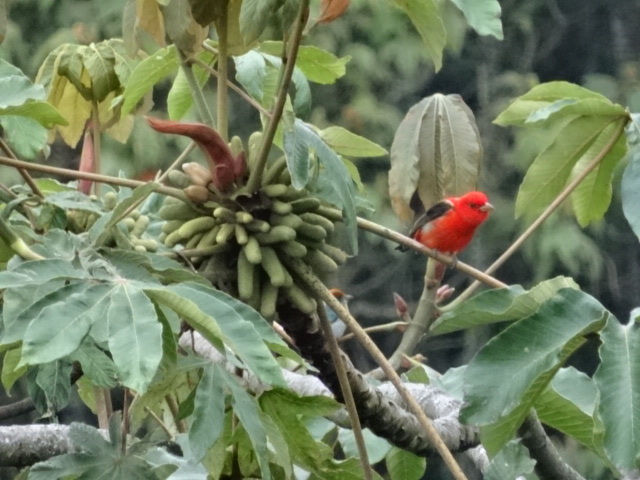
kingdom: Animalia
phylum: Chordata
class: Aves
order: Passeriformes
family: Cardinalidae
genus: Piranga
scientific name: Piranga olivacea
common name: Scarlet tanager
